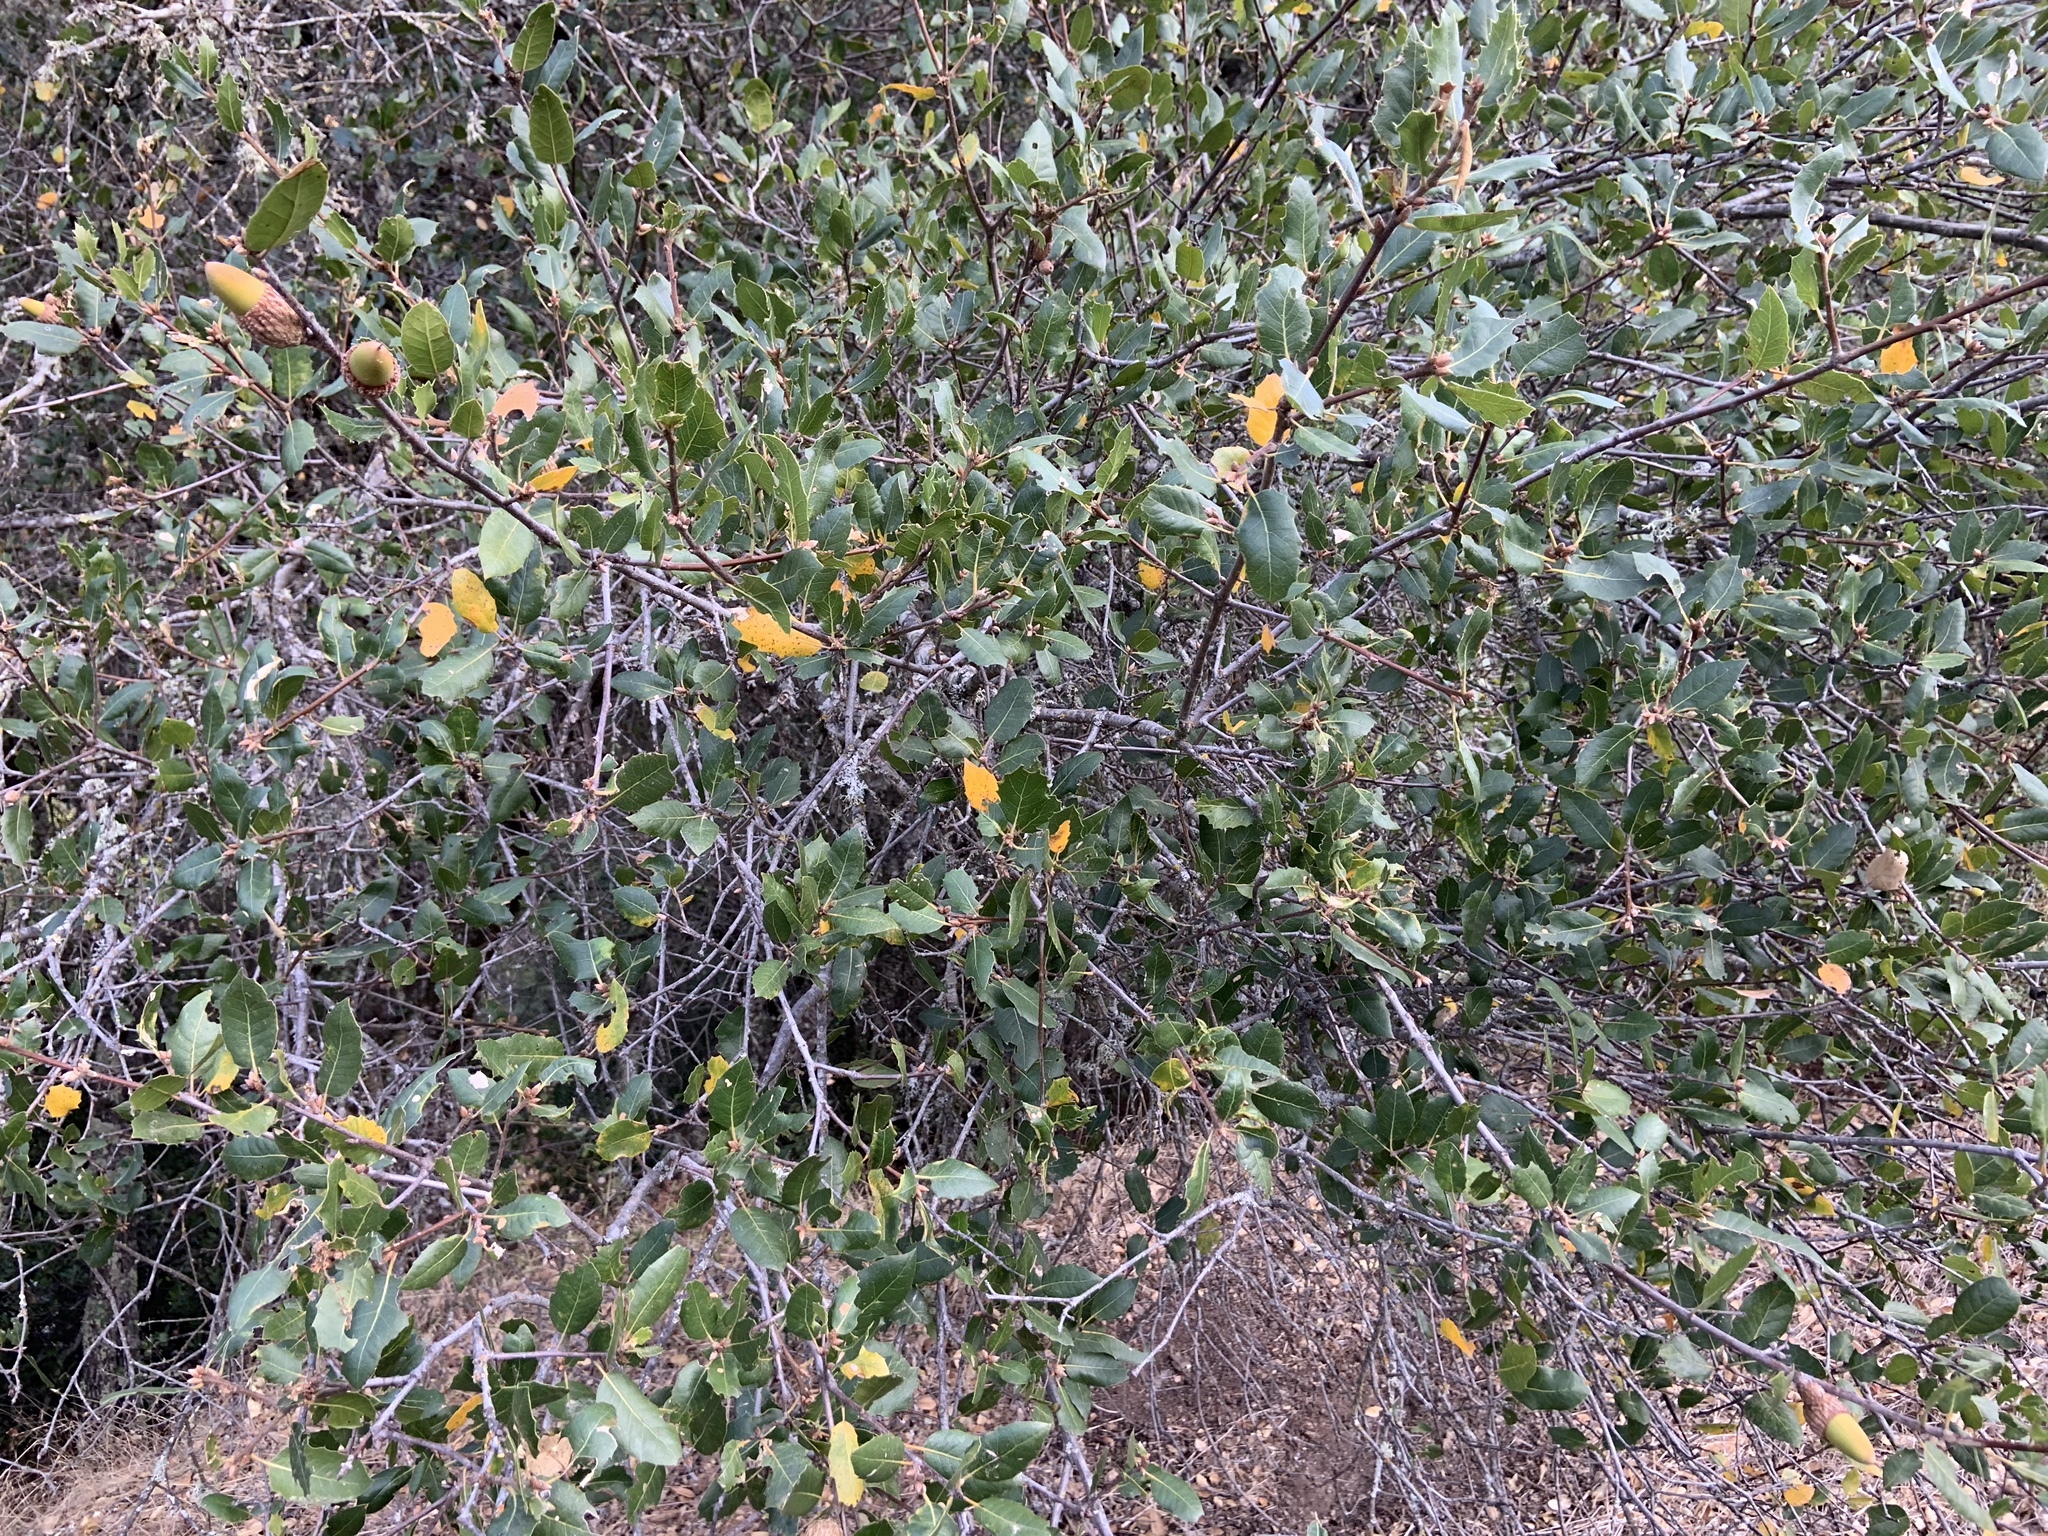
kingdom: Plantae
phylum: Tracheophyta
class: Magnoliopsida
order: Fagales
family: Fagaceae
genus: Quercus
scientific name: Quercus wislizeni
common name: Interior live oak
